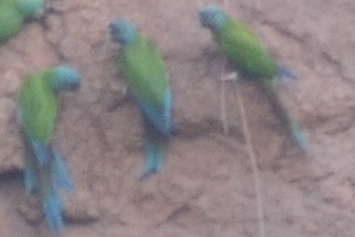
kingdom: Animalia
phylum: Chordata
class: Aves
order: Psittaciformes
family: Psittacidae
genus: Primolius
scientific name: Primolius couloni
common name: Blue-headed macaw
